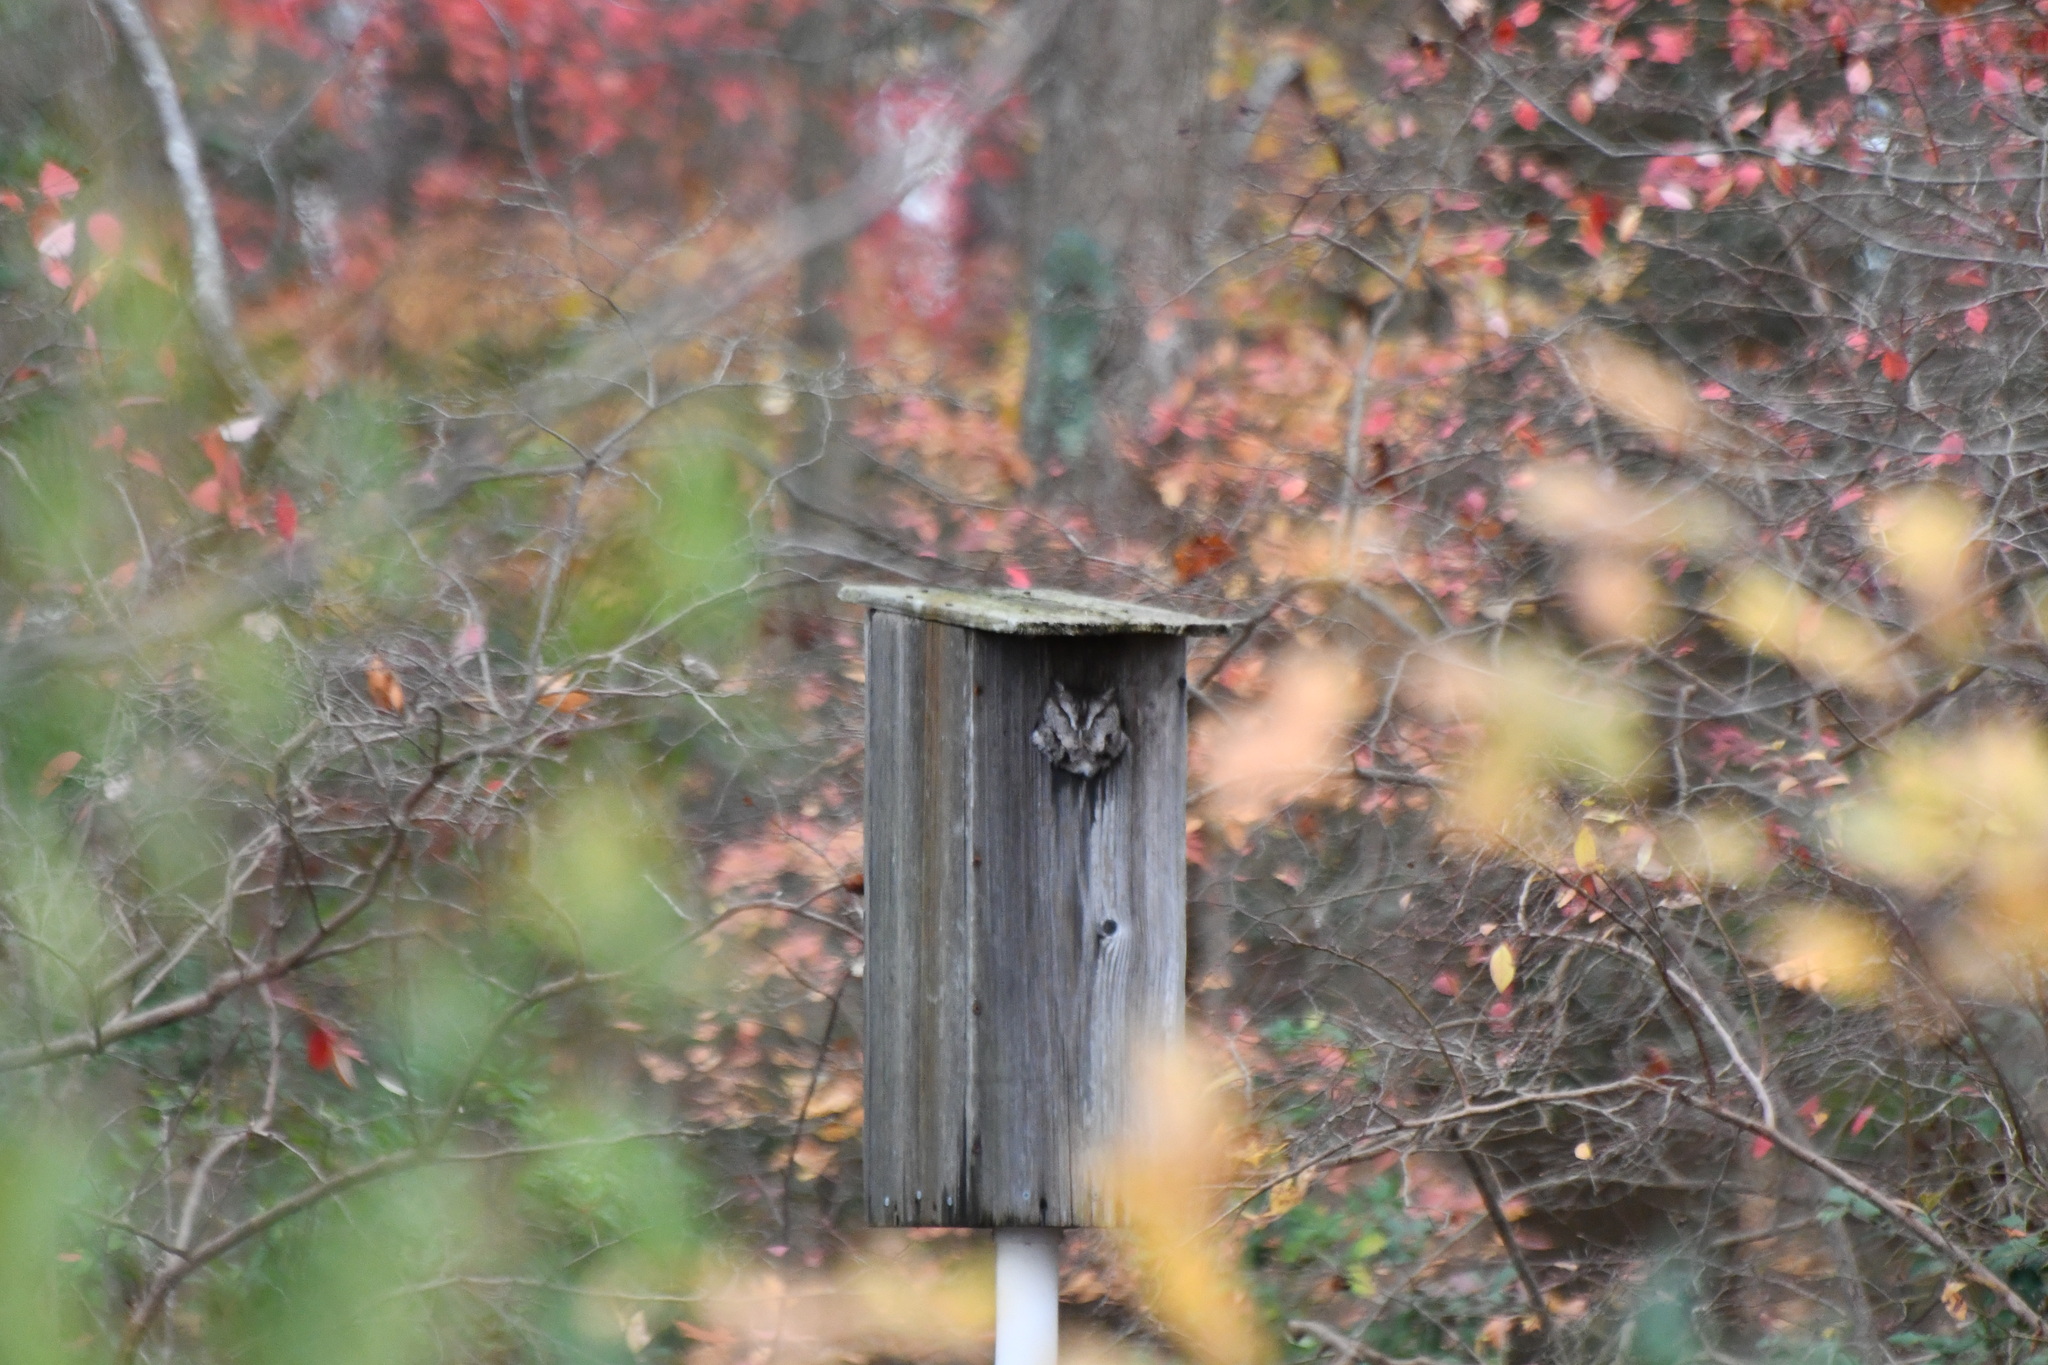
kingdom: Animalia
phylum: Chordata
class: Aves
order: Strigiformes
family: Strigidae
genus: Megascops
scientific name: Megascops asio
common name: Eastern screech-owl
